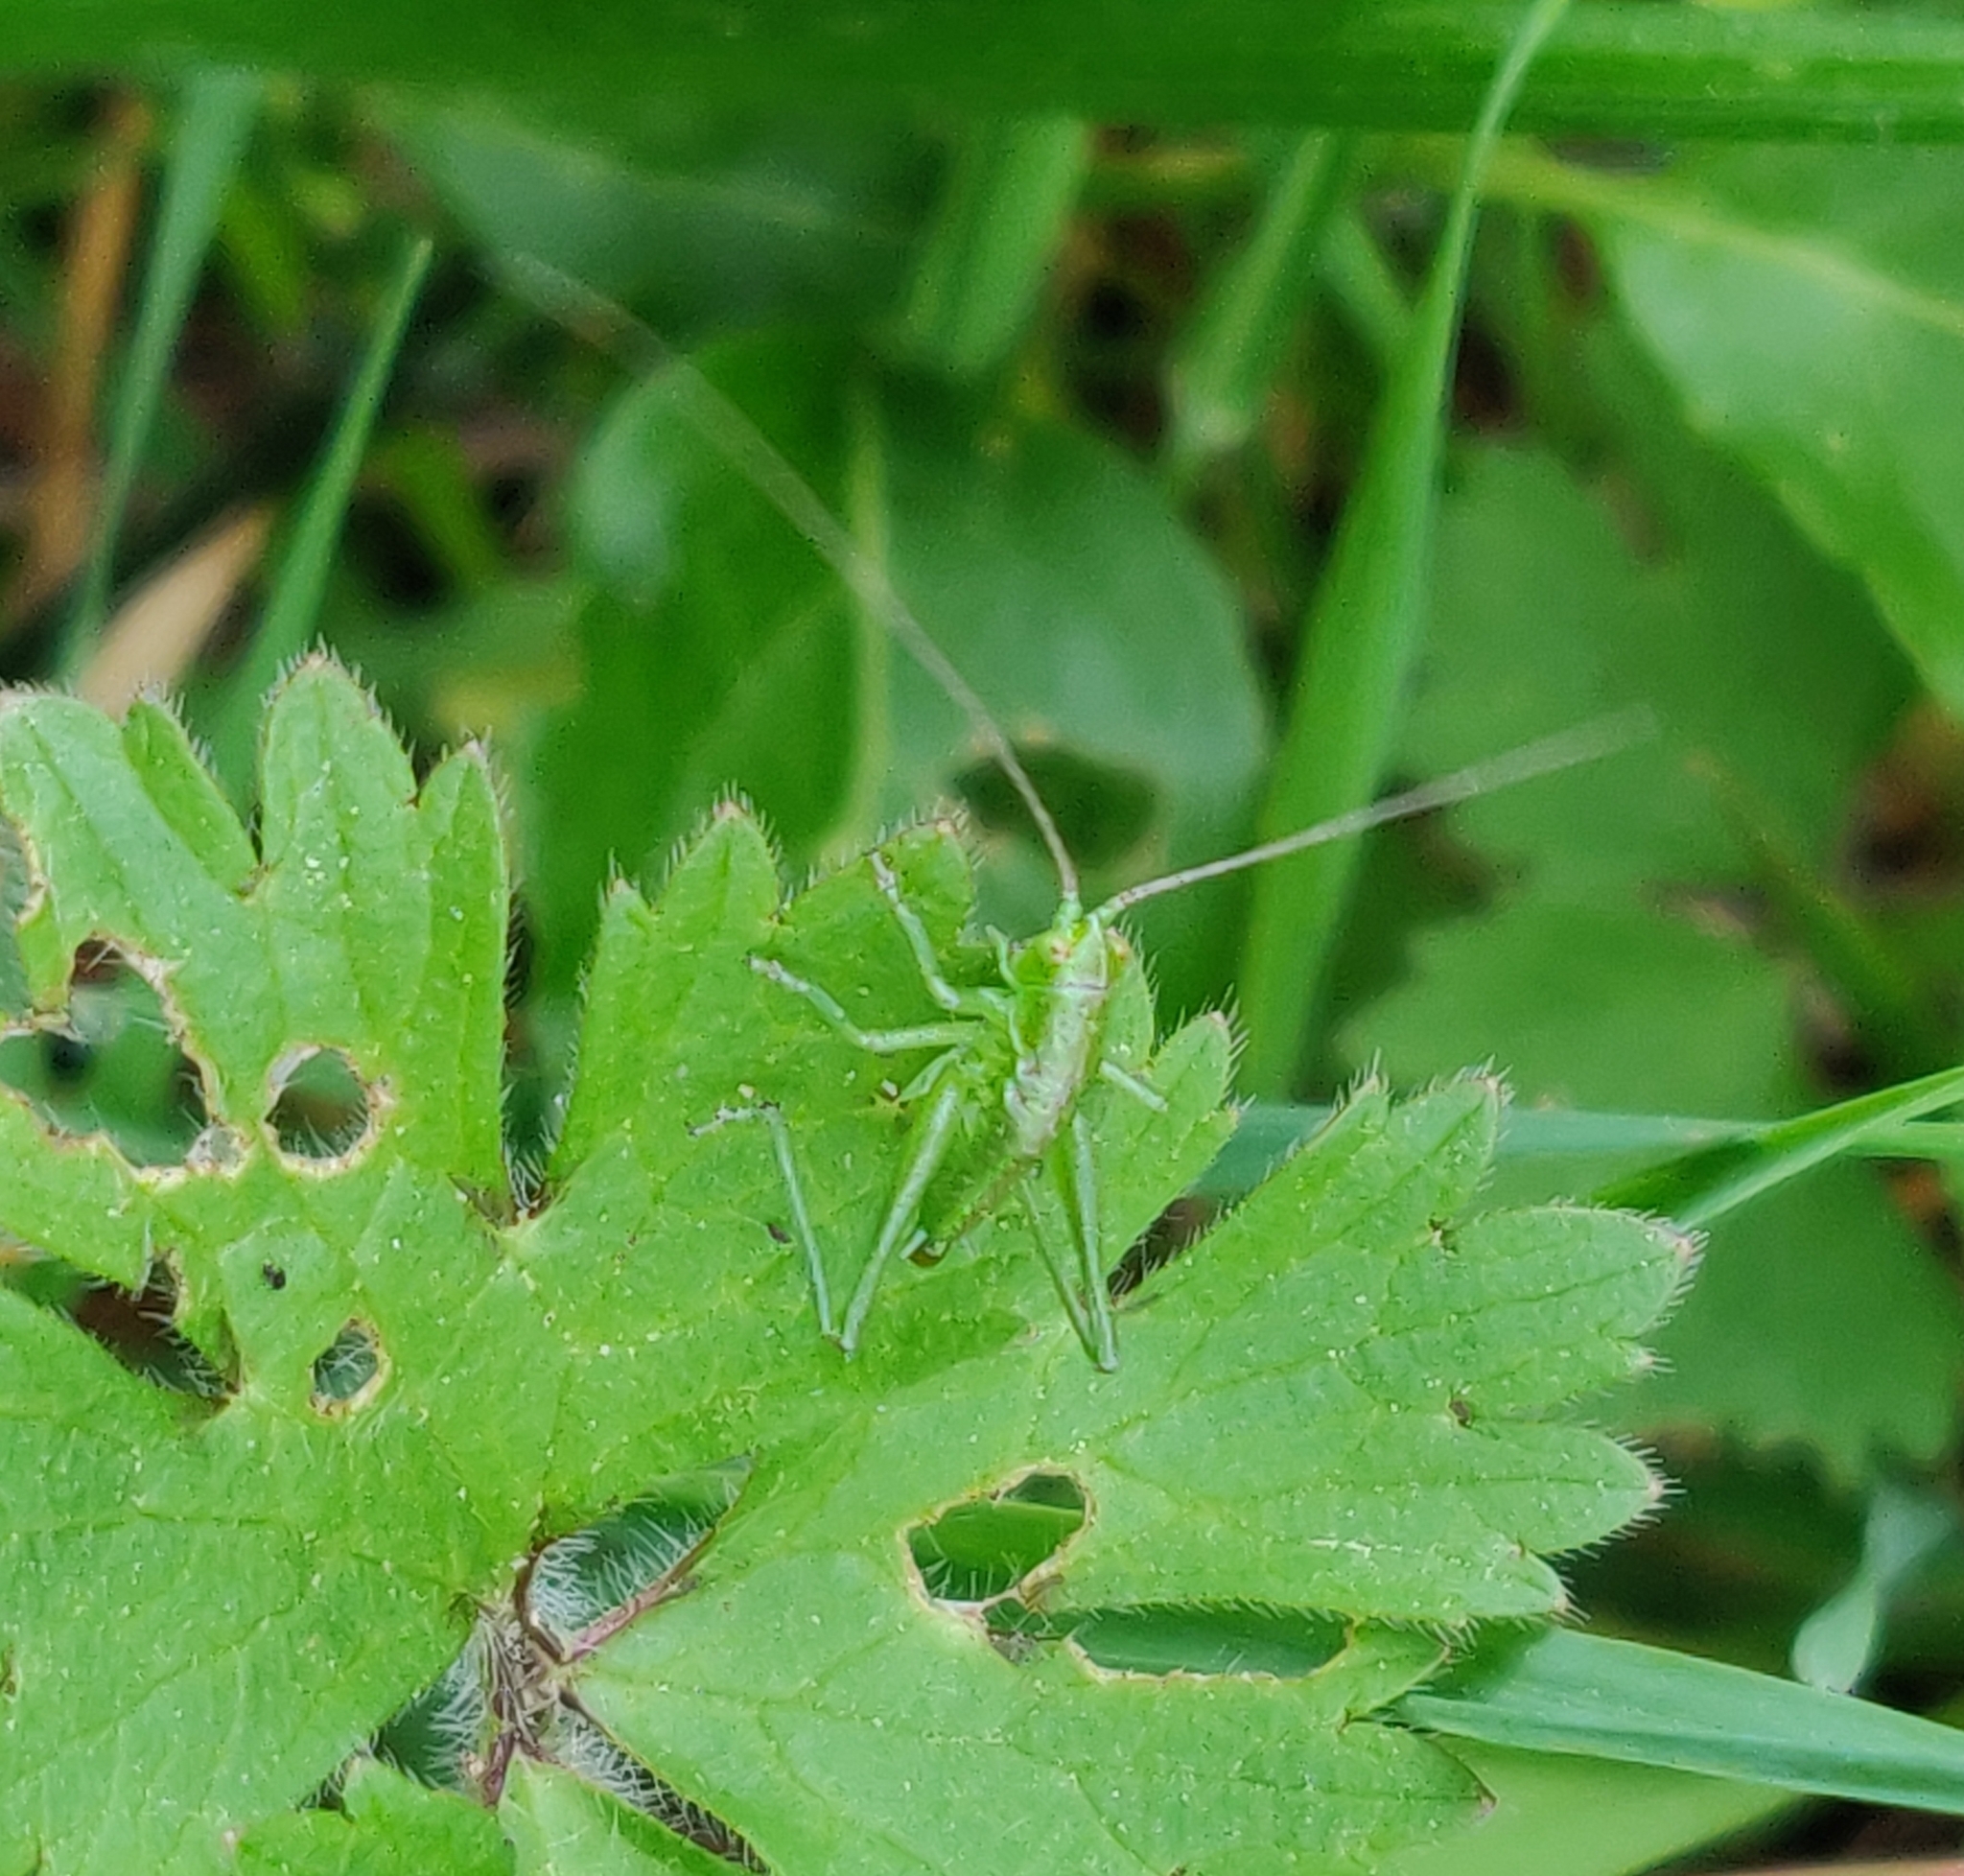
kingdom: Animalia
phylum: Arthropoda
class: Insecta
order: Orthoptera
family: Tettigoniidae
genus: Tettigonia
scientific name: Tettigonia viridissima
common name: Great green bush-cricket
